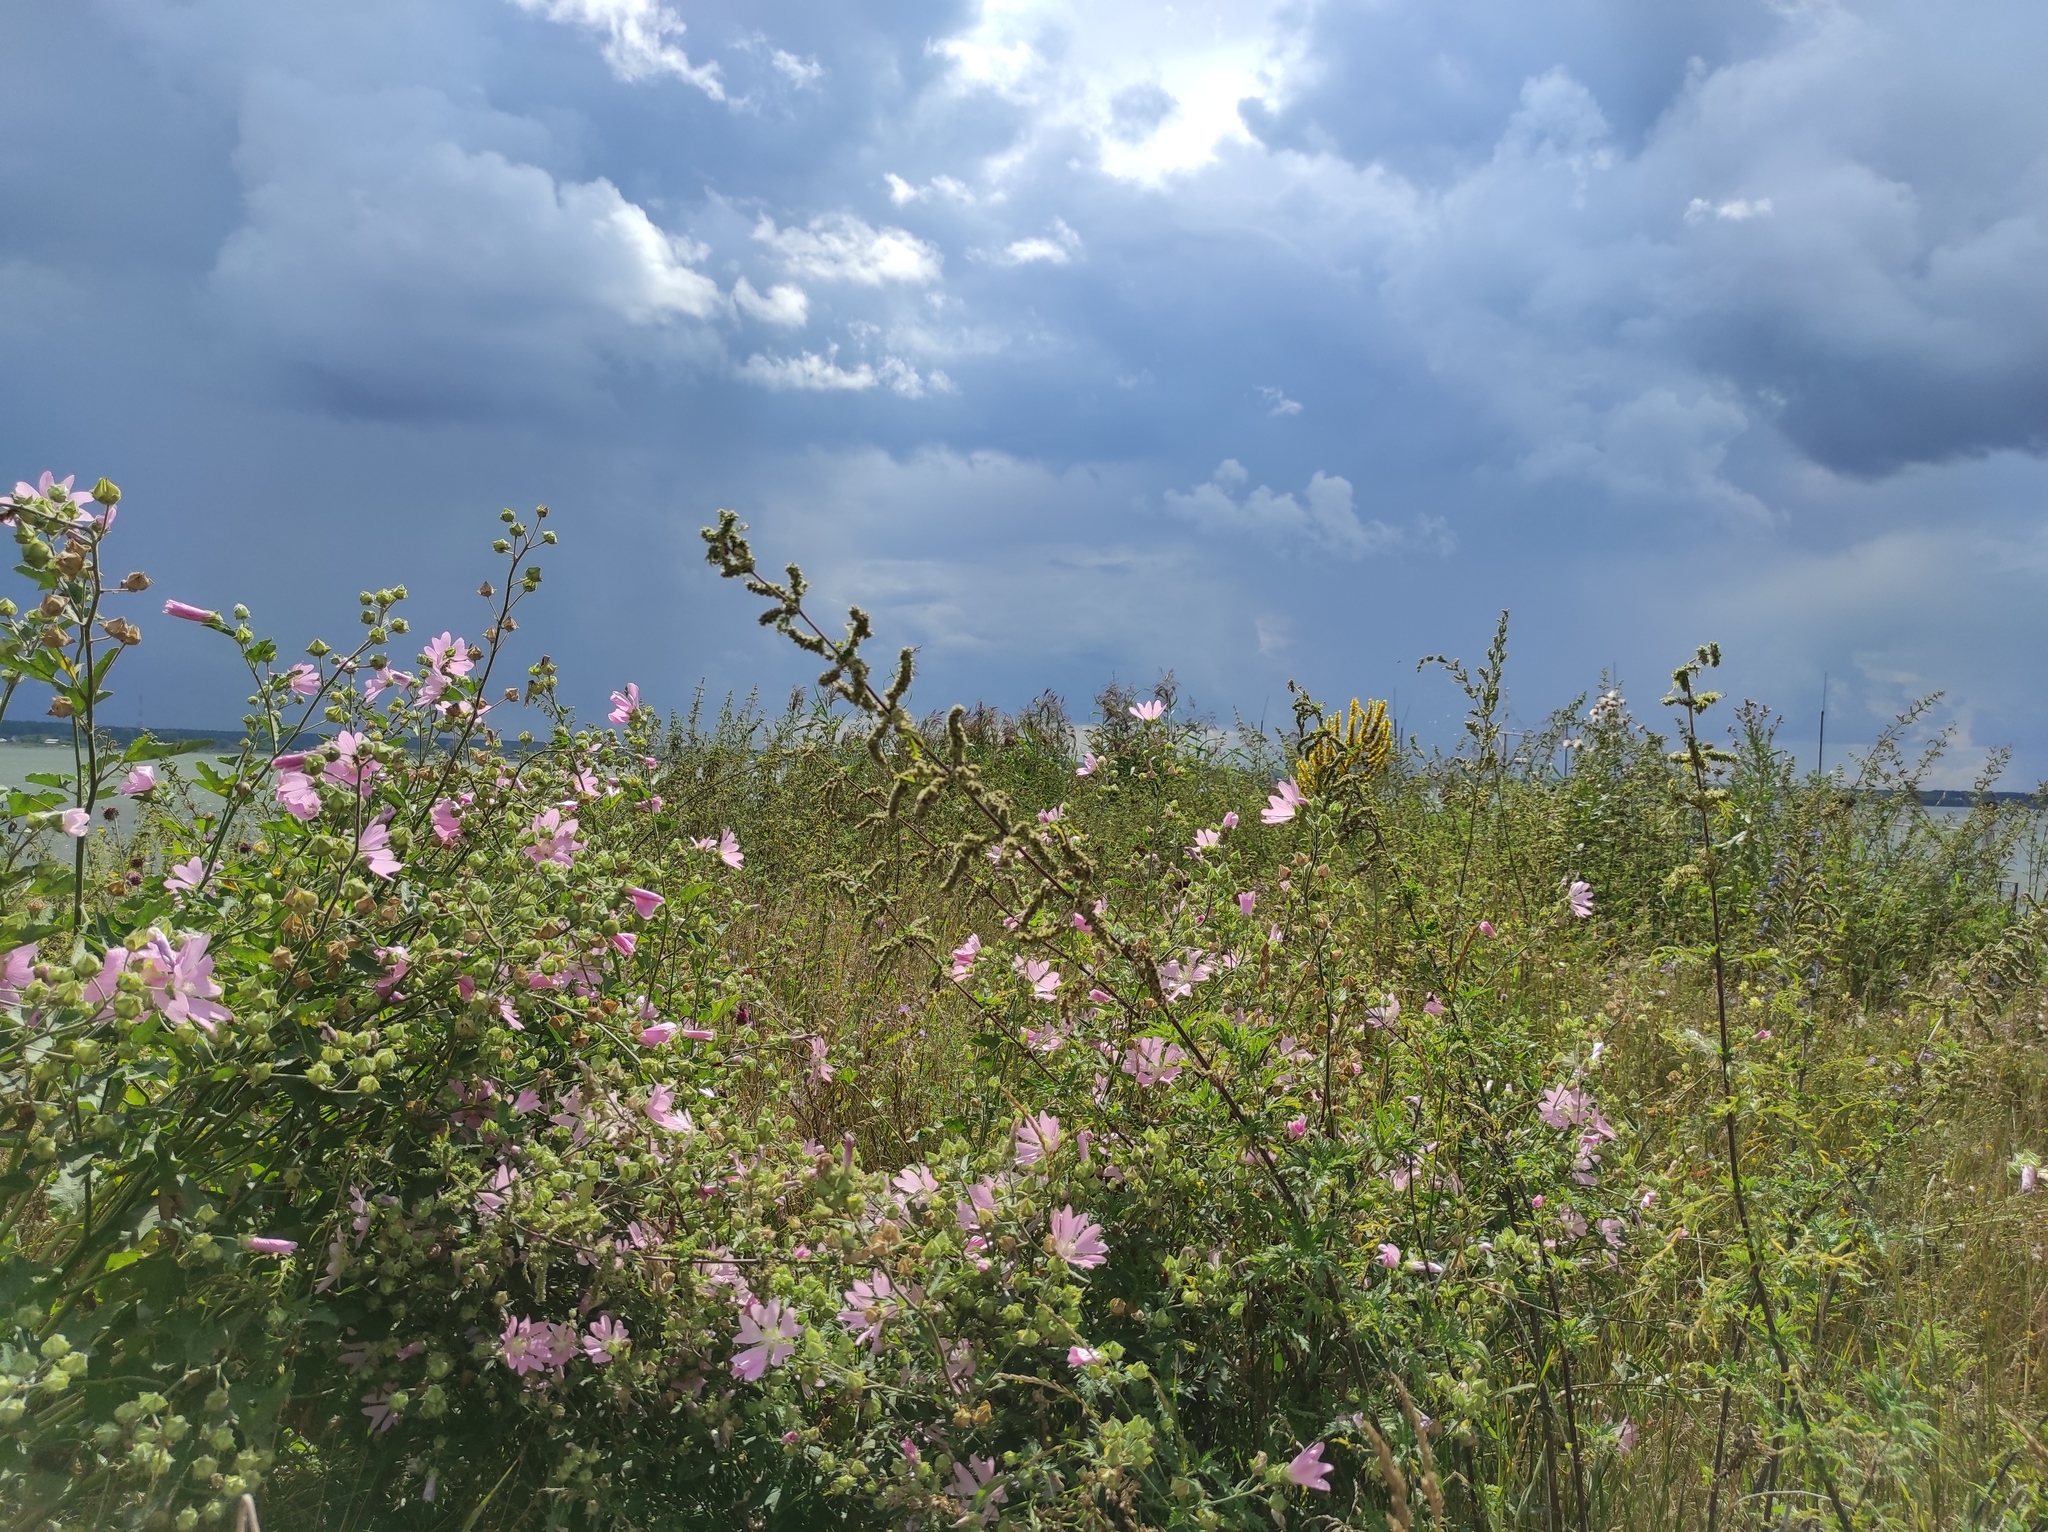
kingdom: Plantae
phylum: Tracheophyta
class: Magnoliopsida
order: Malvales
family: Malvaceae
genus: Malva
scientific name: Malva thuringiaca
